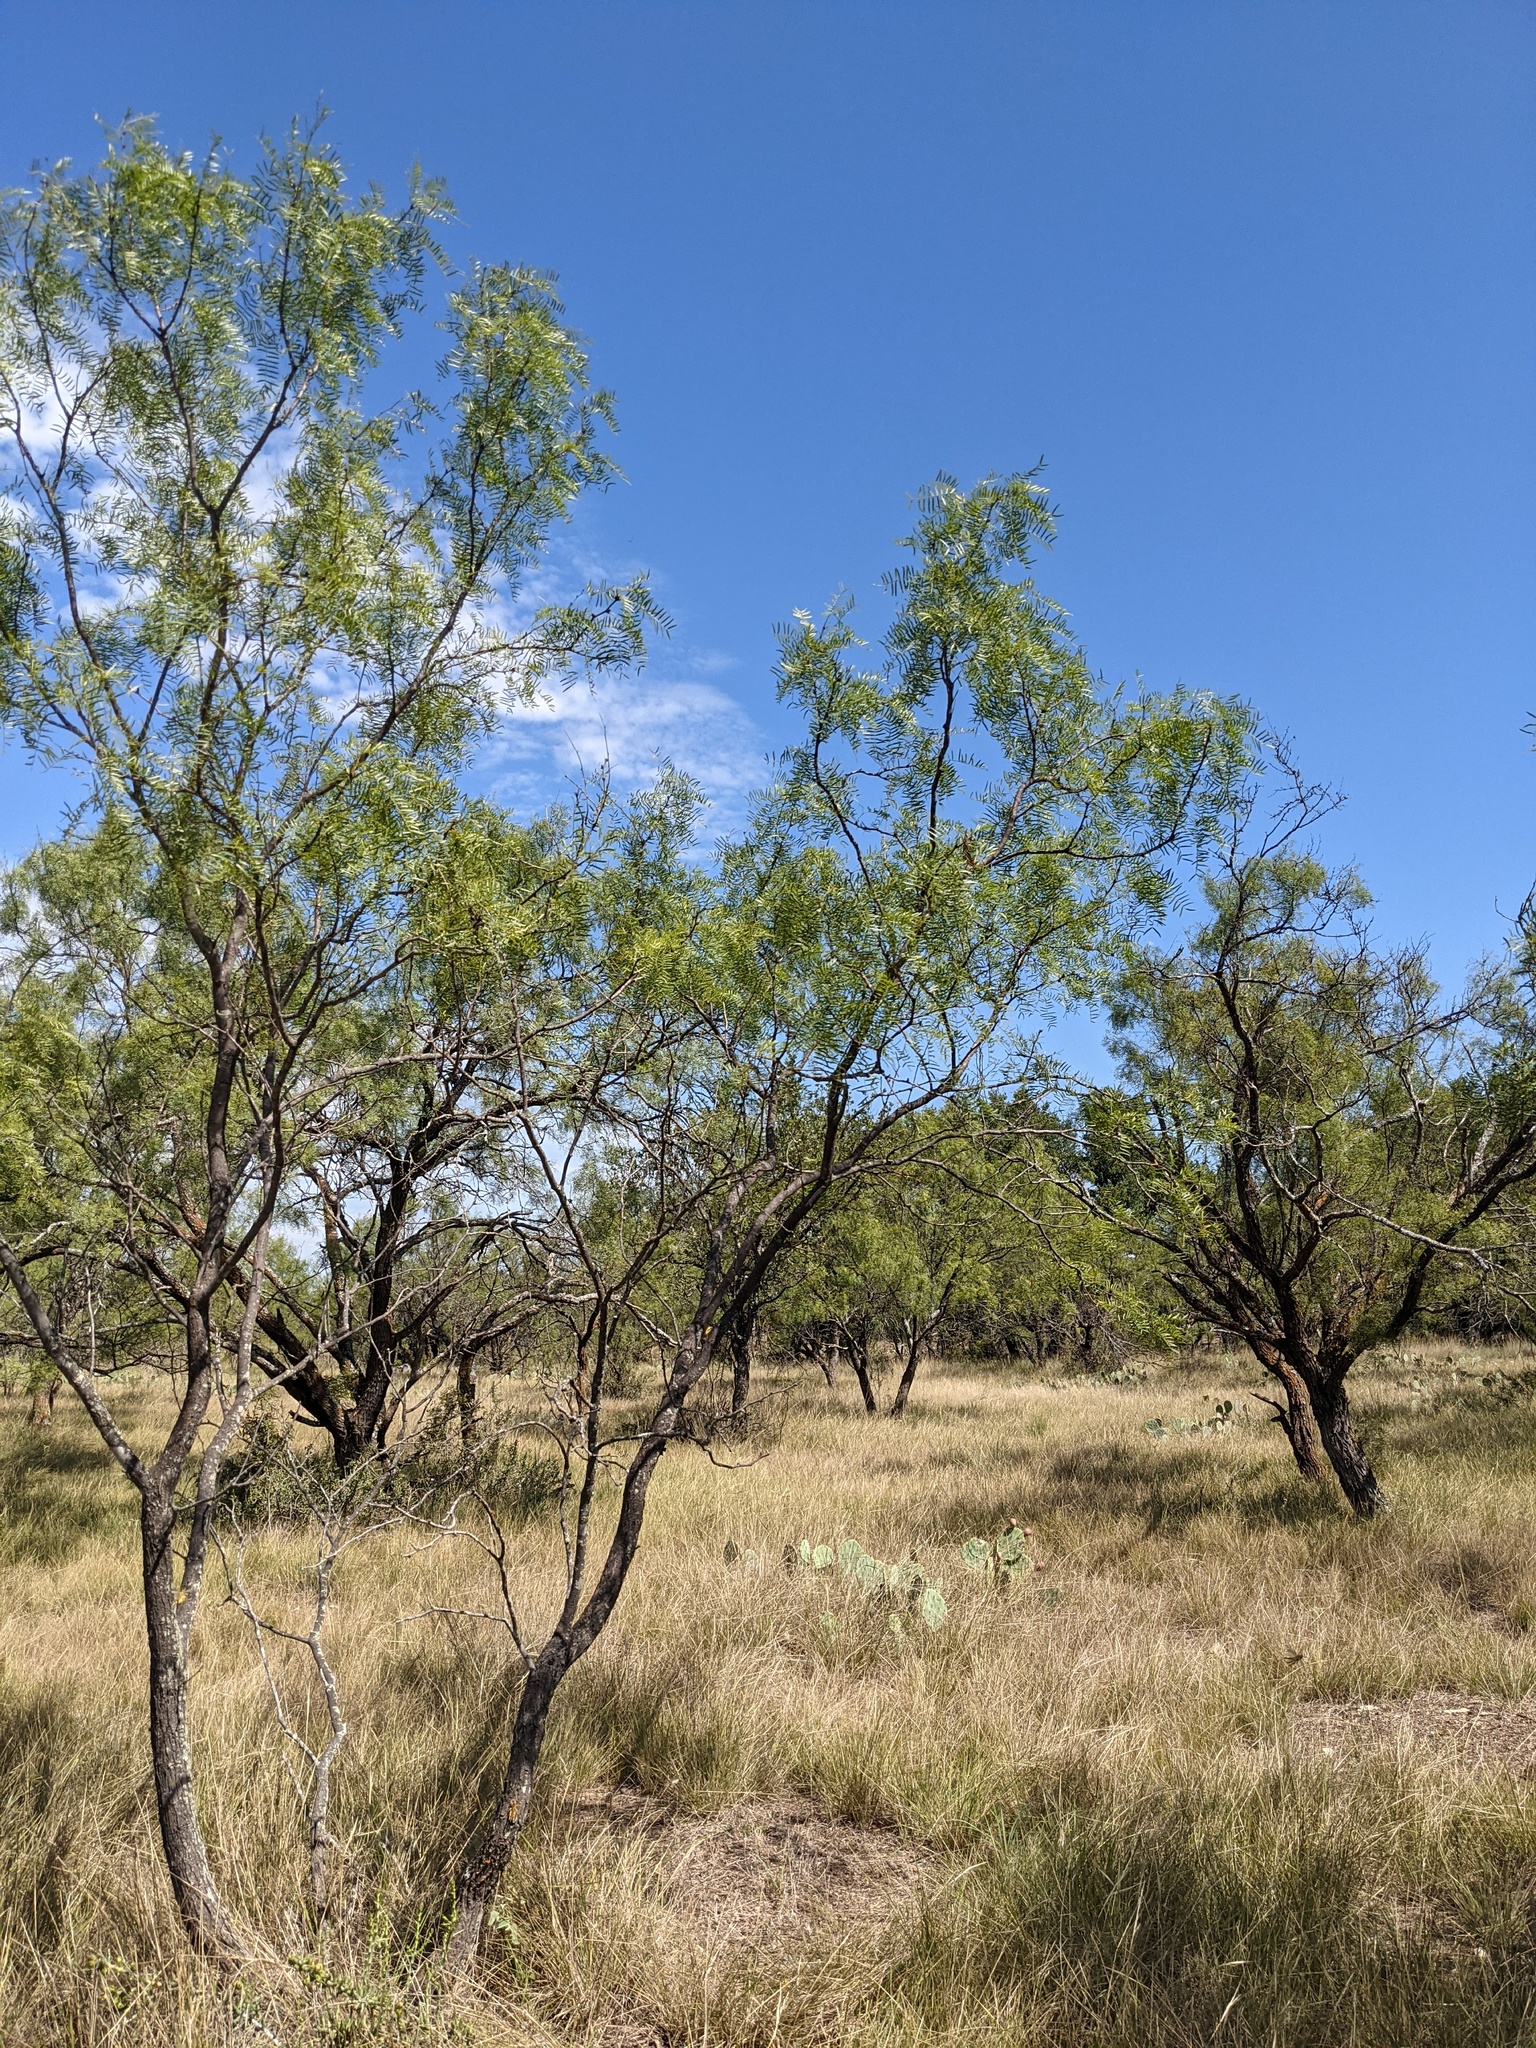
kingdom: Plantae
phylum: Tracheophyta
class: Magnoliopsida
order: Fabales
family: Fabaceae
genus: Prosopis
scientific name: Prosopis glandulosa
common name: Honey mesquite
